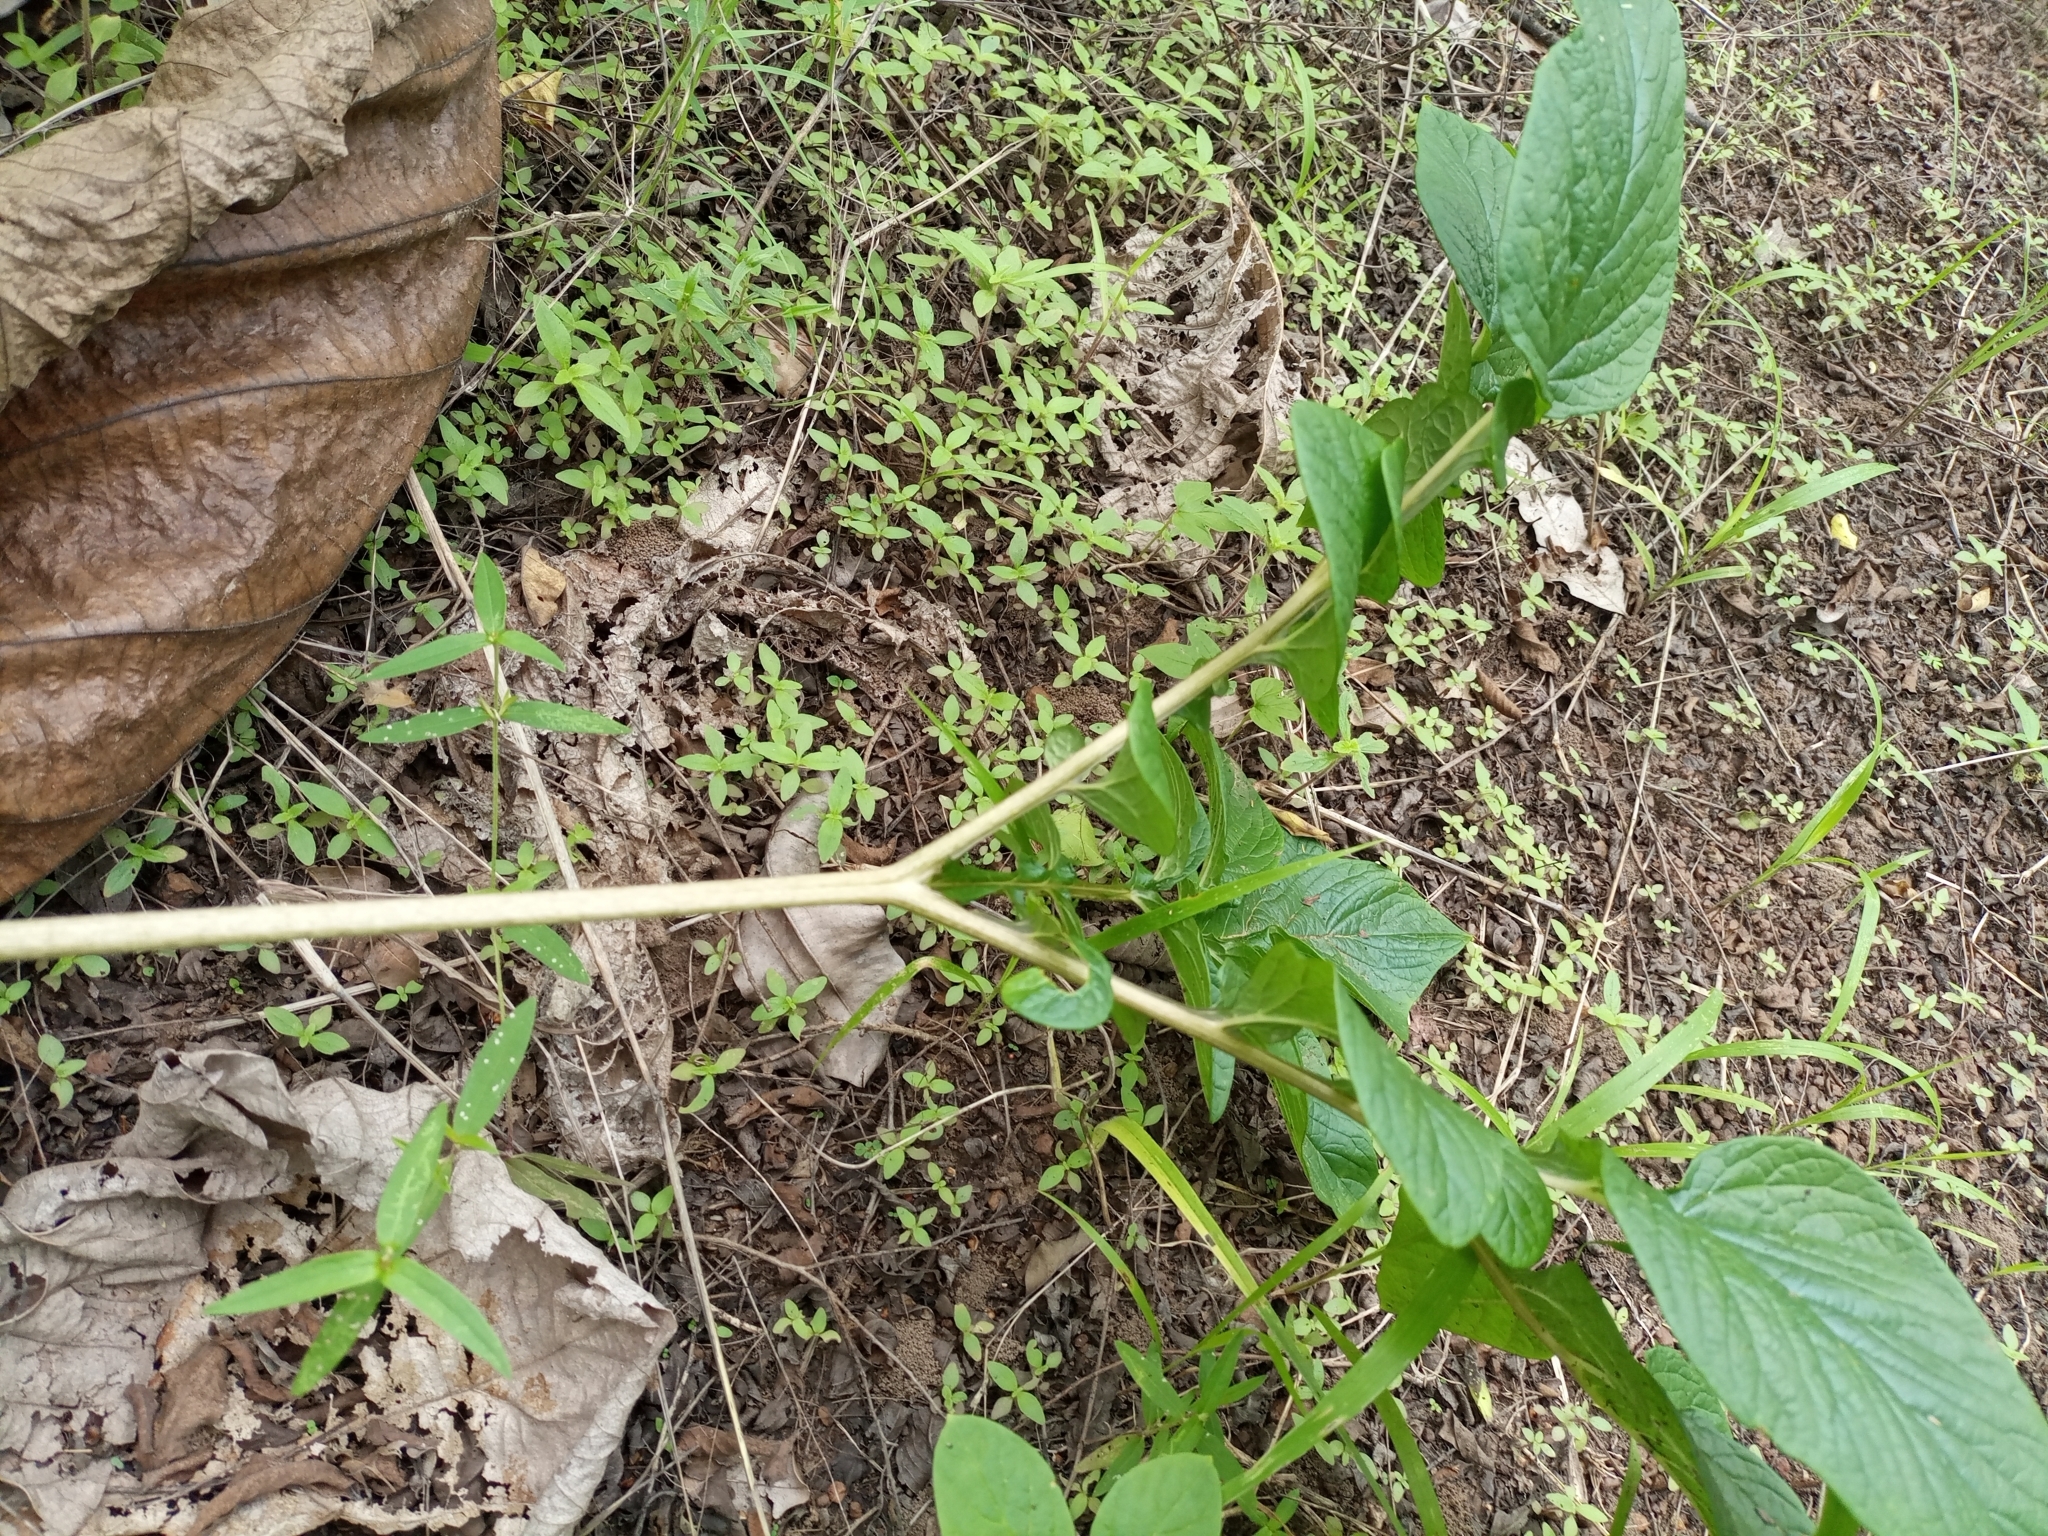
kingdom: Plantae
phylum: Tracheophyta
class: Liliopsida
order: Dioscoreales
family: Dioscoreaceae
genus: Tacca
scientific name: Tacca leontopetaloides
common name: Arrowroot
